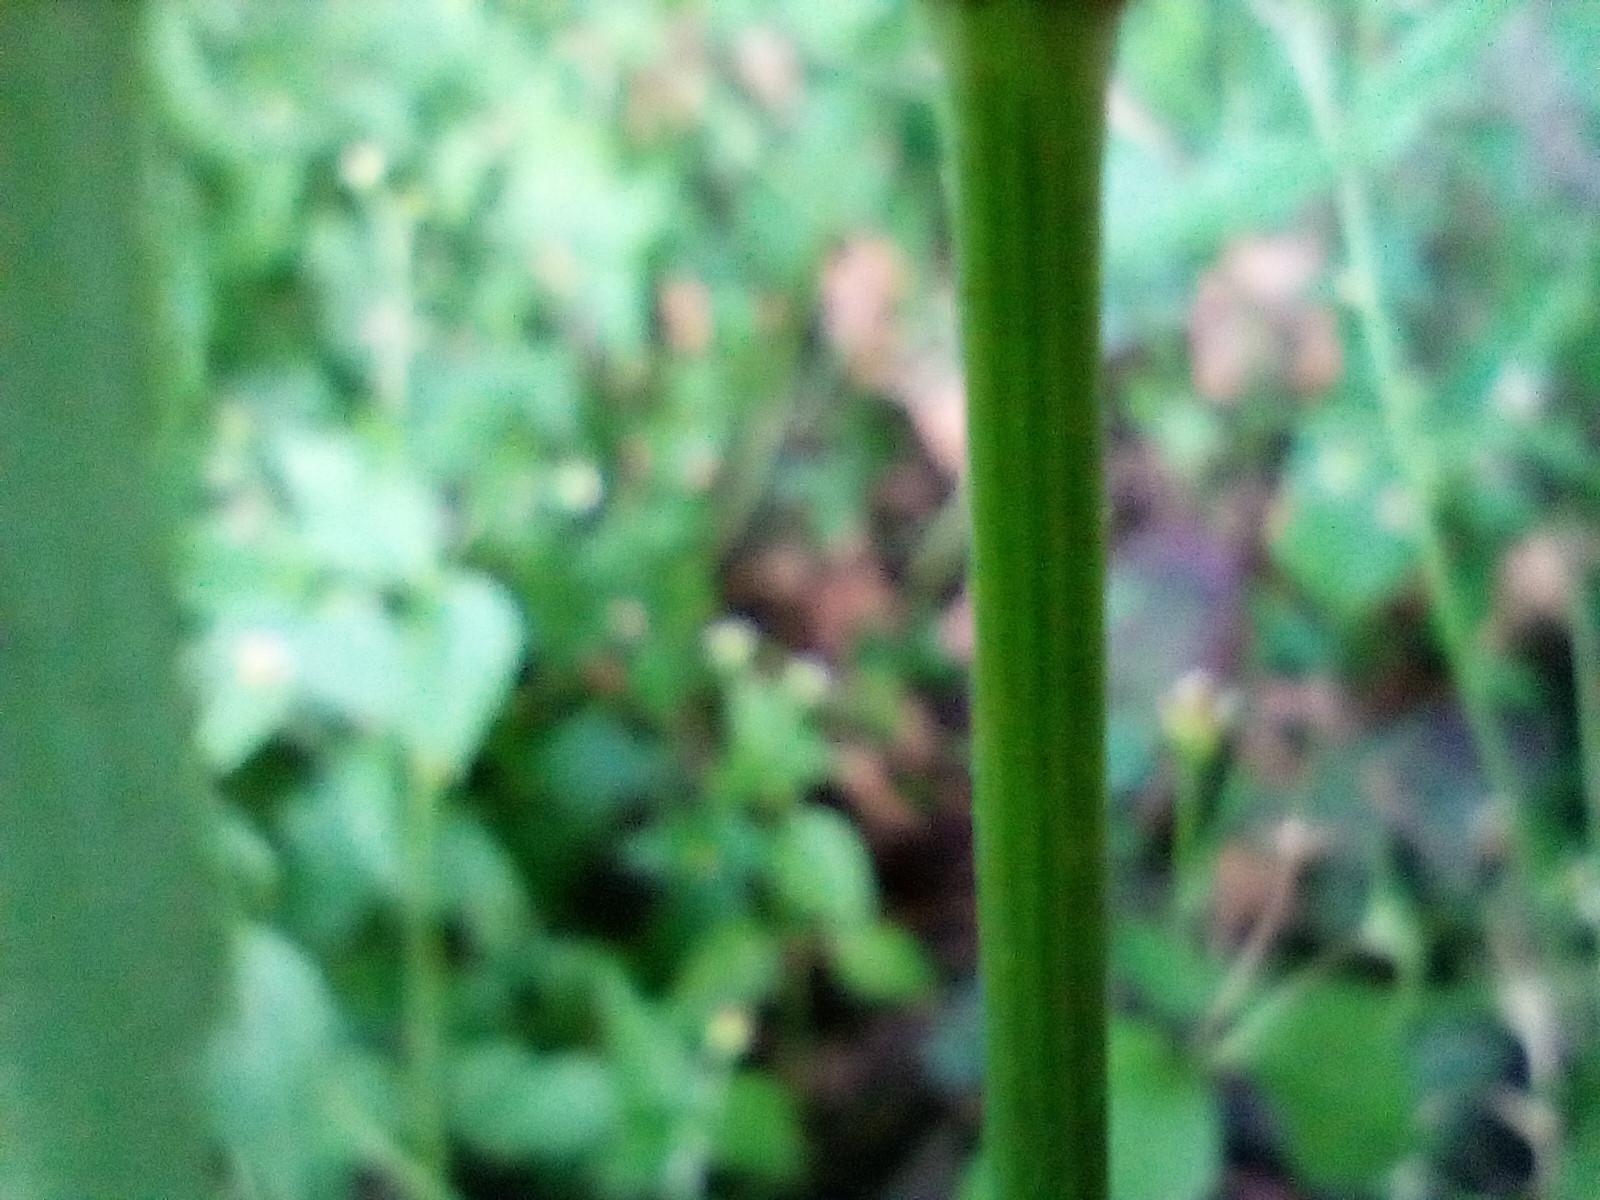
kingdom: Plantae
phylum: Tracheophyta
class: Magnoliopsida
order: Asterales
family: Asteraceae
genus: Galinsoga
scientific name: Galinsoga parviflora
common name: Gallant soldier
